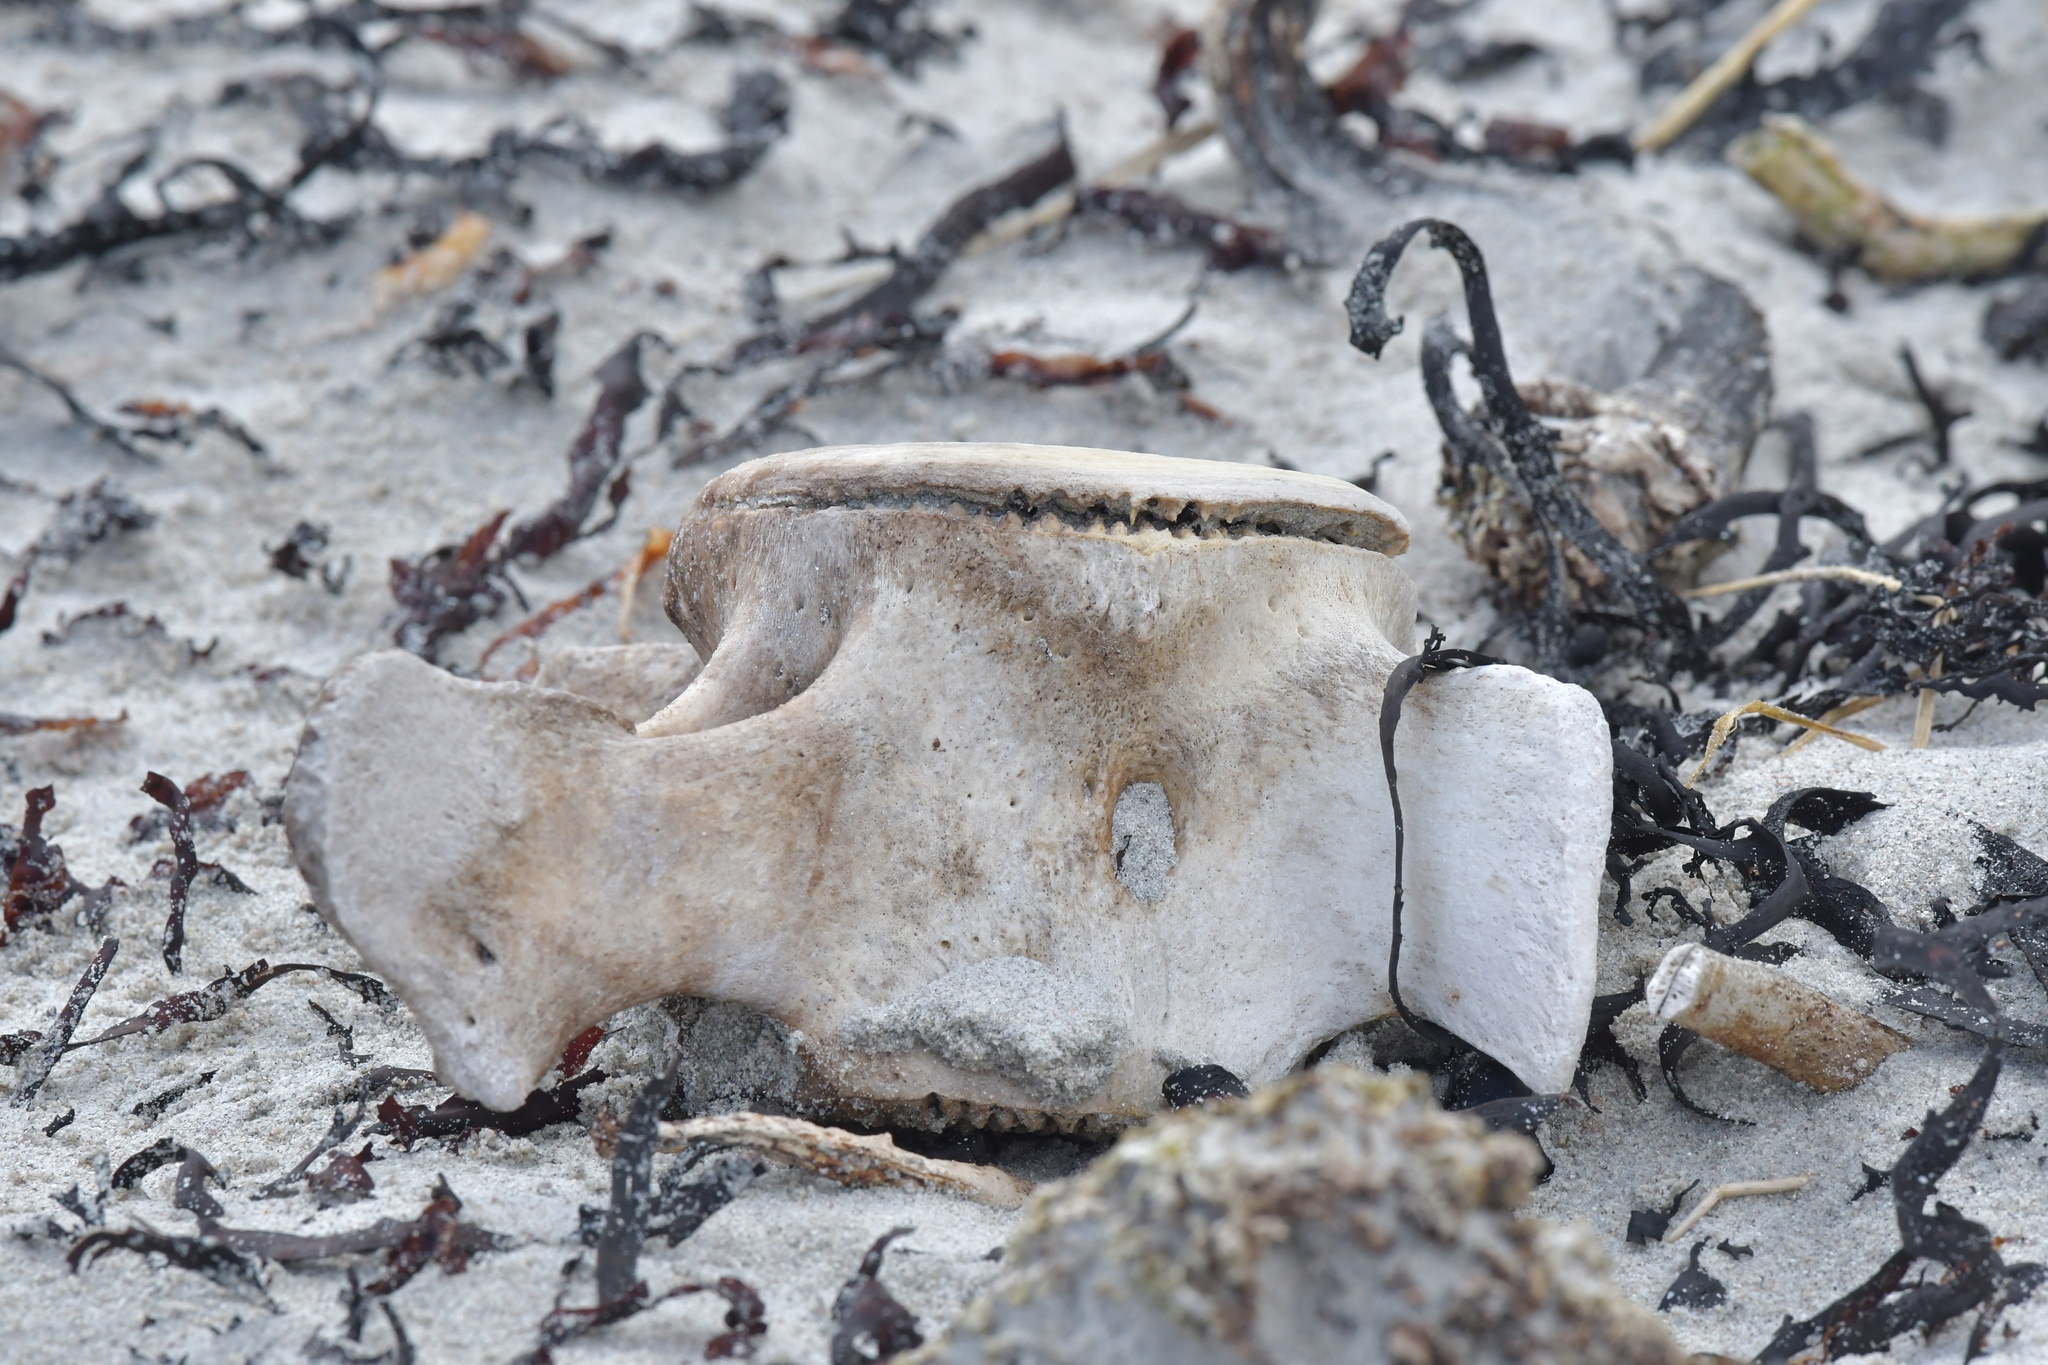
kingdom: Animalia
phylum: Chordata
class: Mammalia
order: Cetacea
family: Delphinidae
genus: Globicephala
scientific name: Globicephala melas
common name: Long-finned pilot whale
